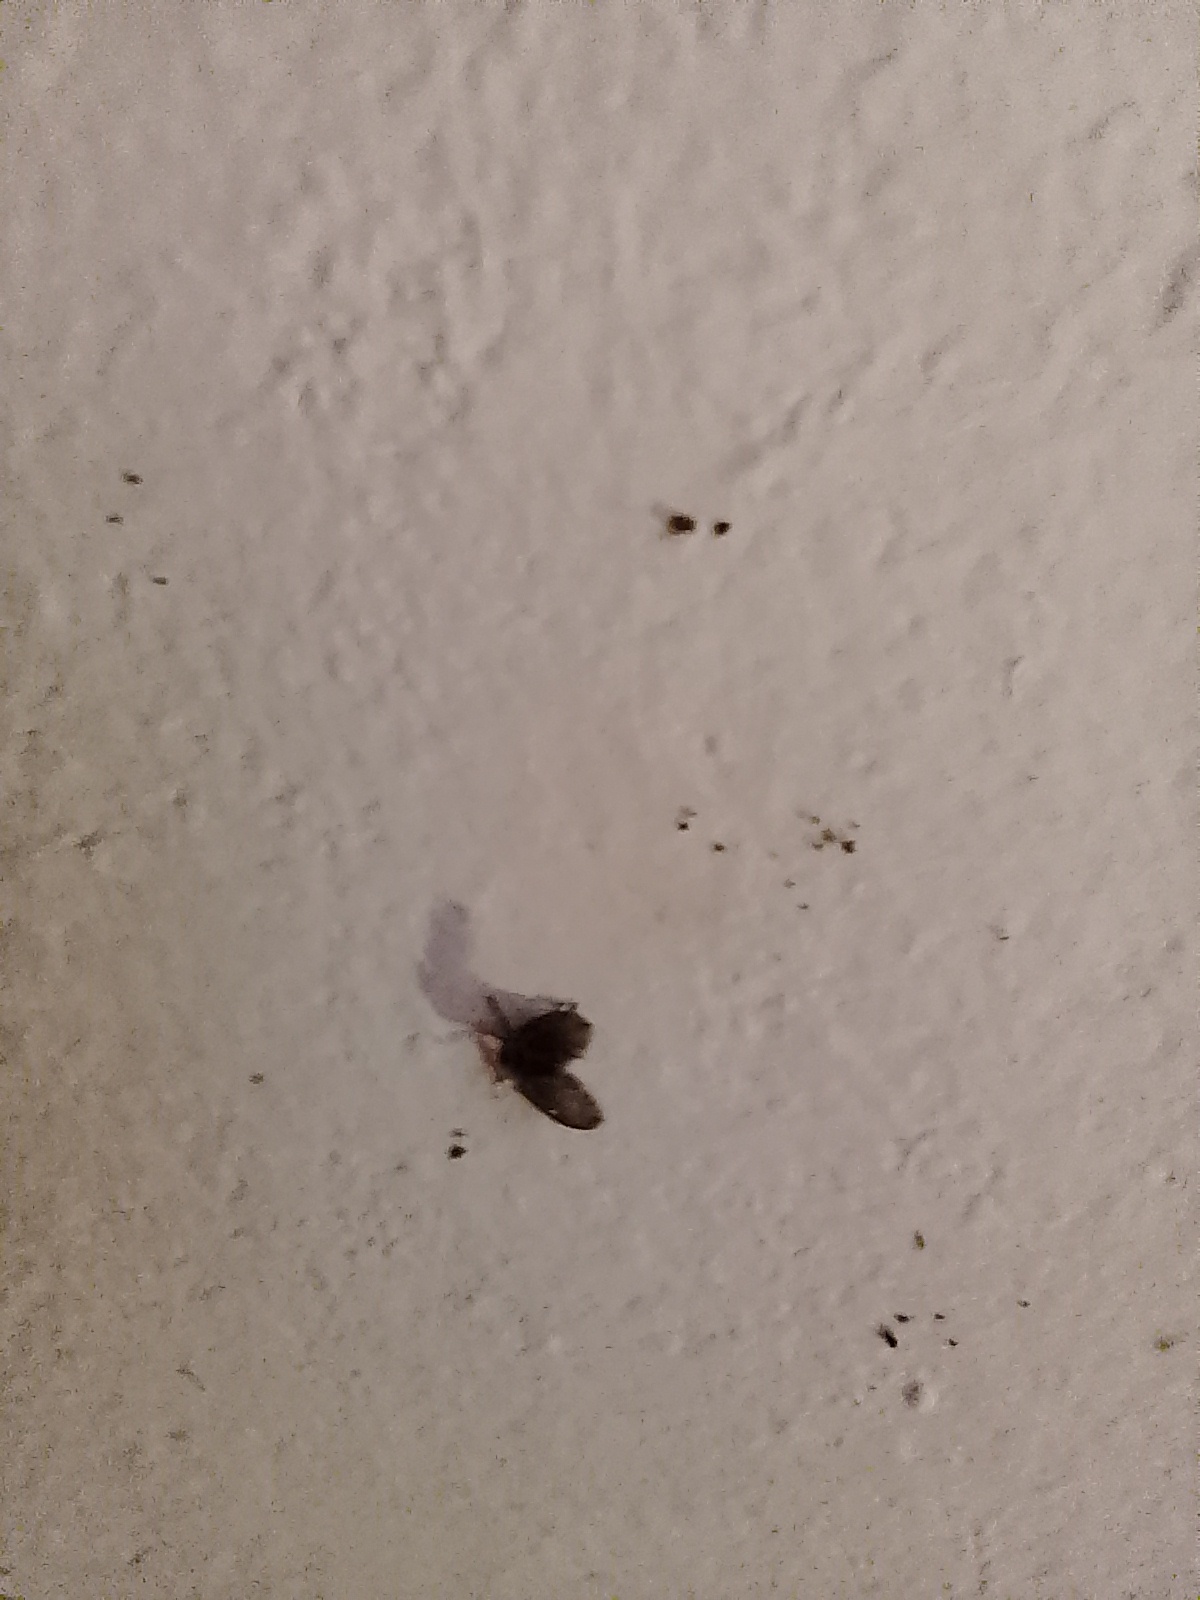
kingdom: Animalia
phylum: Arthropoda
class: Insecta
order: Diptera
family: Psychodidae
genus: Clogmia
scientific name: Clogmia albipunctatus
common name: White-spotted moth fly
